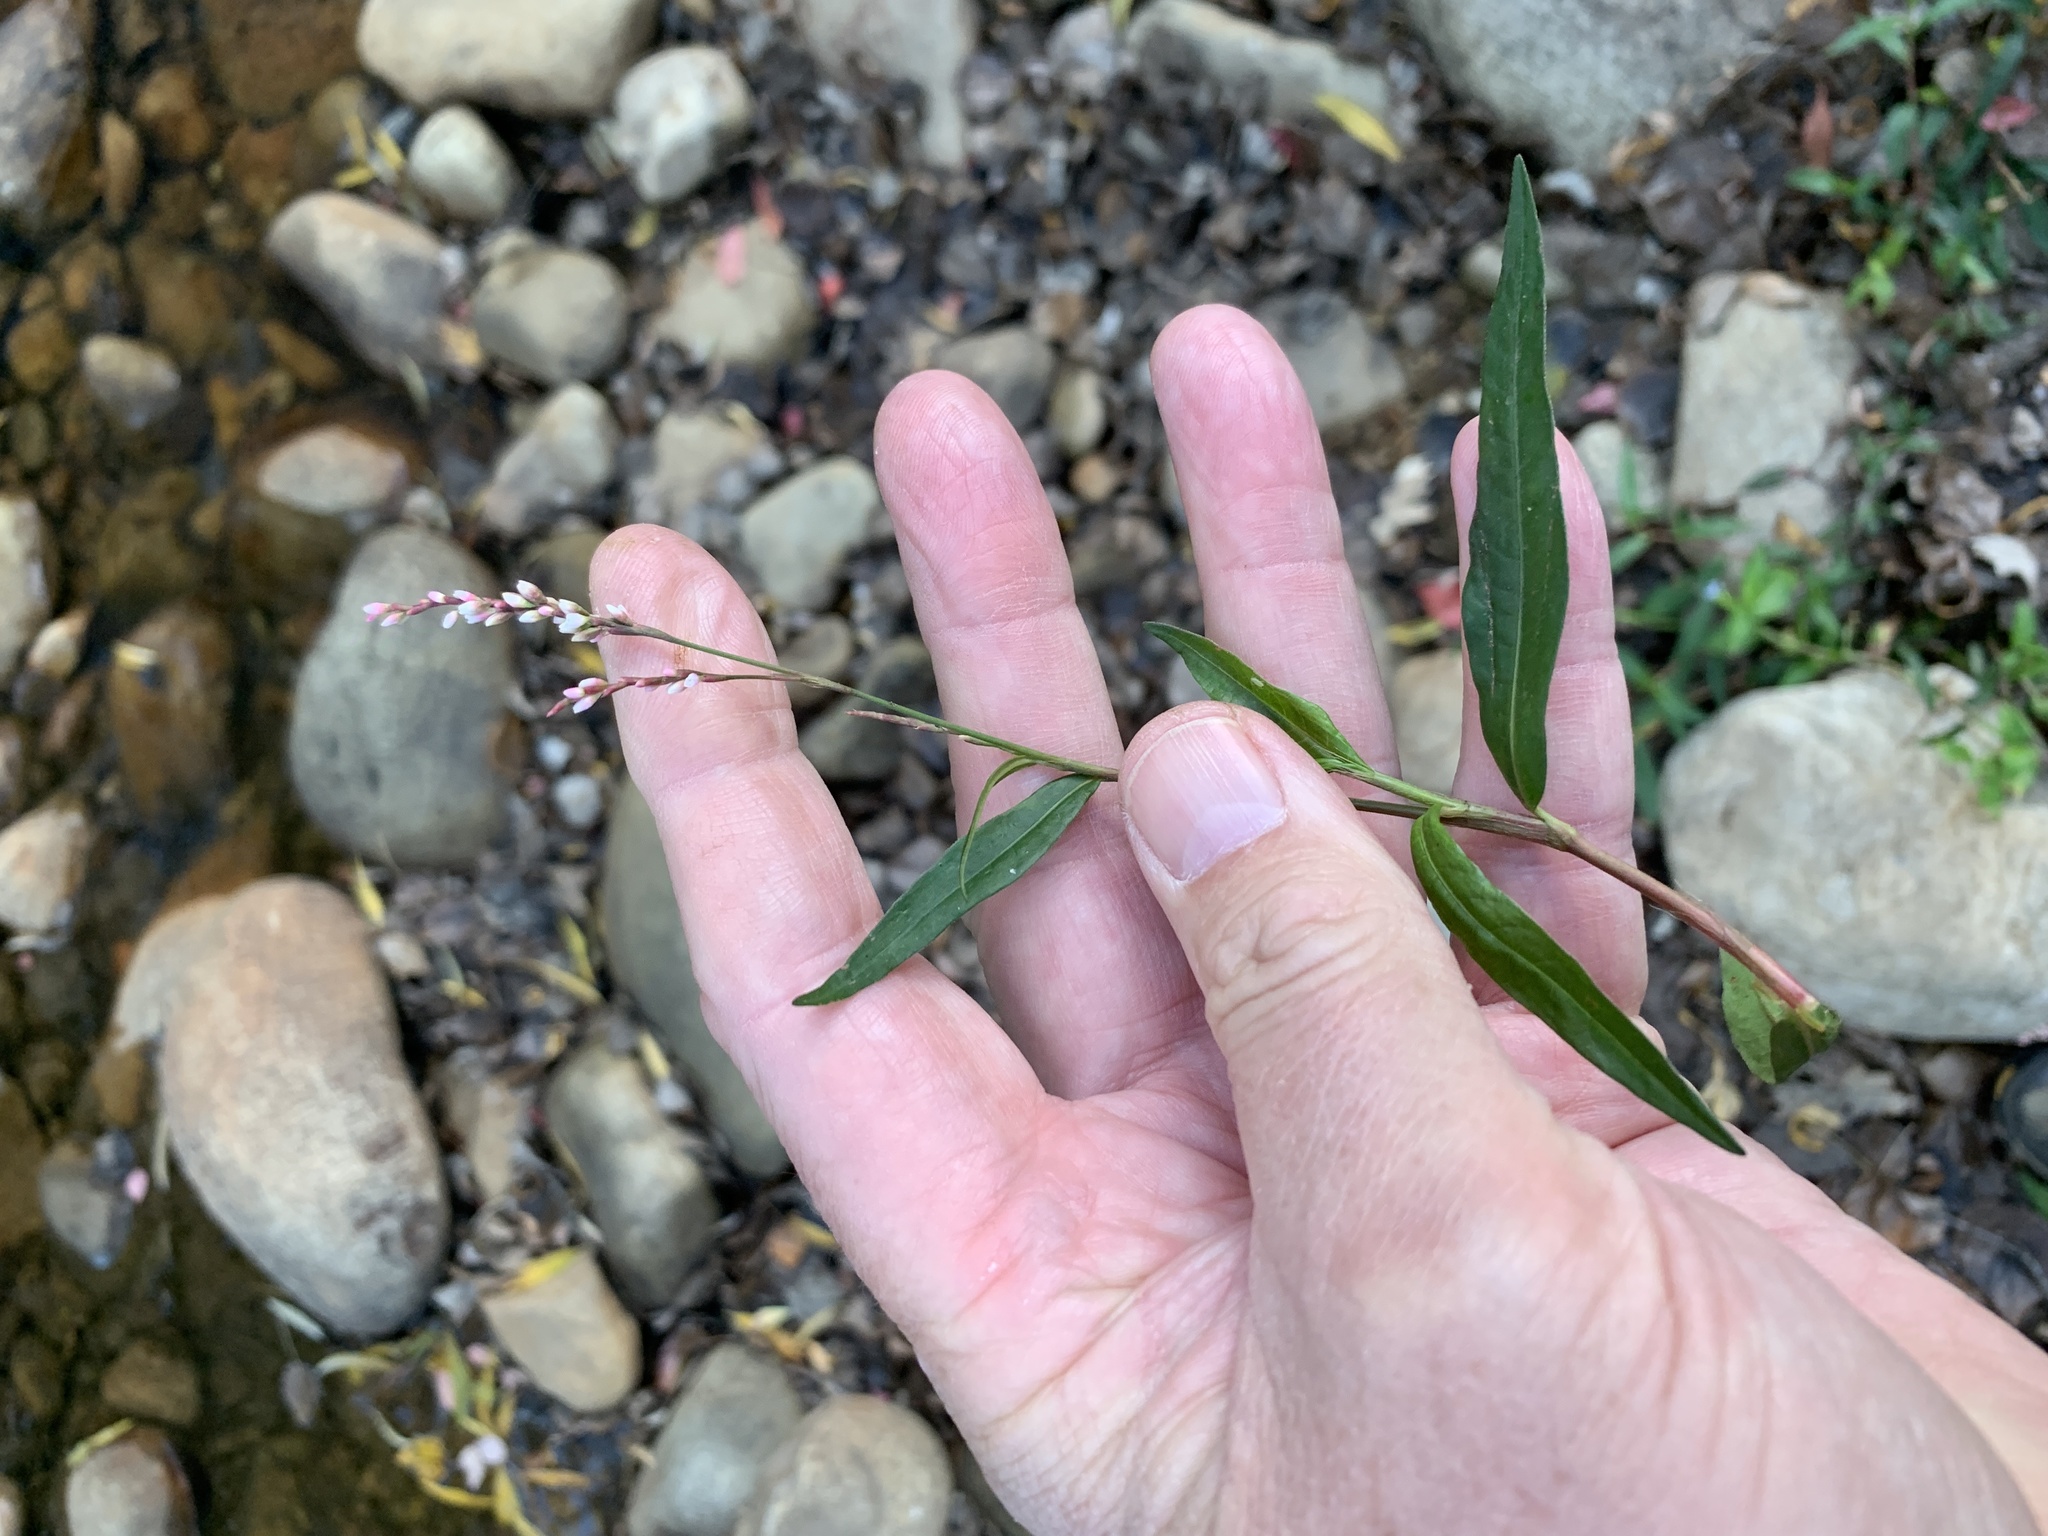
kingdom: Plantae
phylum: Tracheophyta
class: Magnoliopsida
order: Caryophyllales
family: Polygonaceae
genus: Persicaria
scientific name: Persicaria decipiens
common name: Willow-weed
